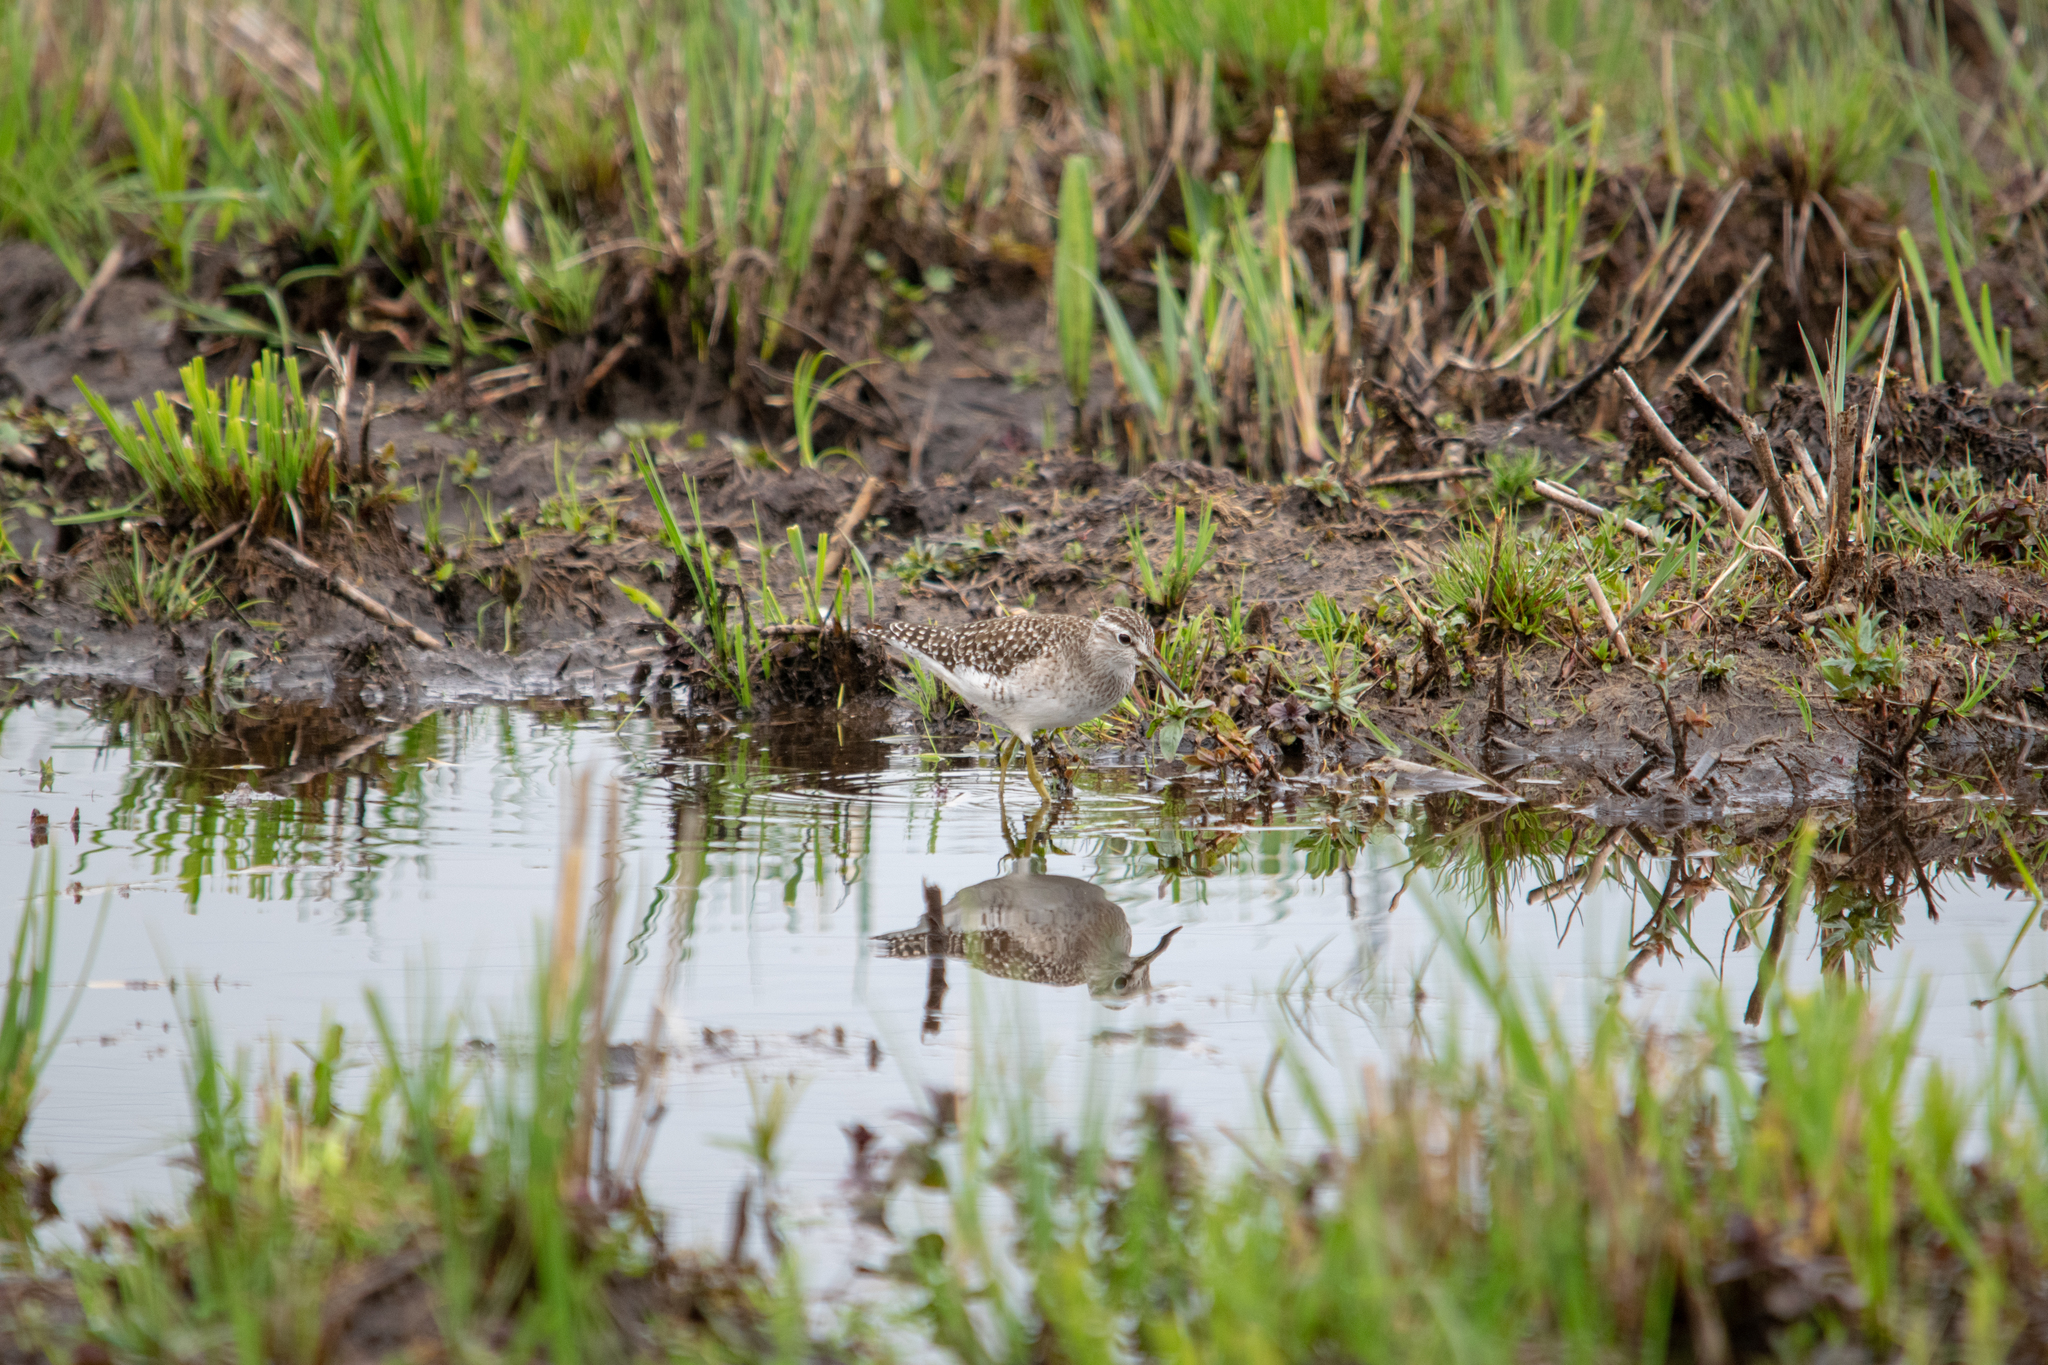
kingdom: Animalia
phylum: Chordata
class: Aves
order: Charadriiformes
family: Scolopacidae
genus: Tringa
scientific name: Tringa glareola
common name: Wood sandpiper
